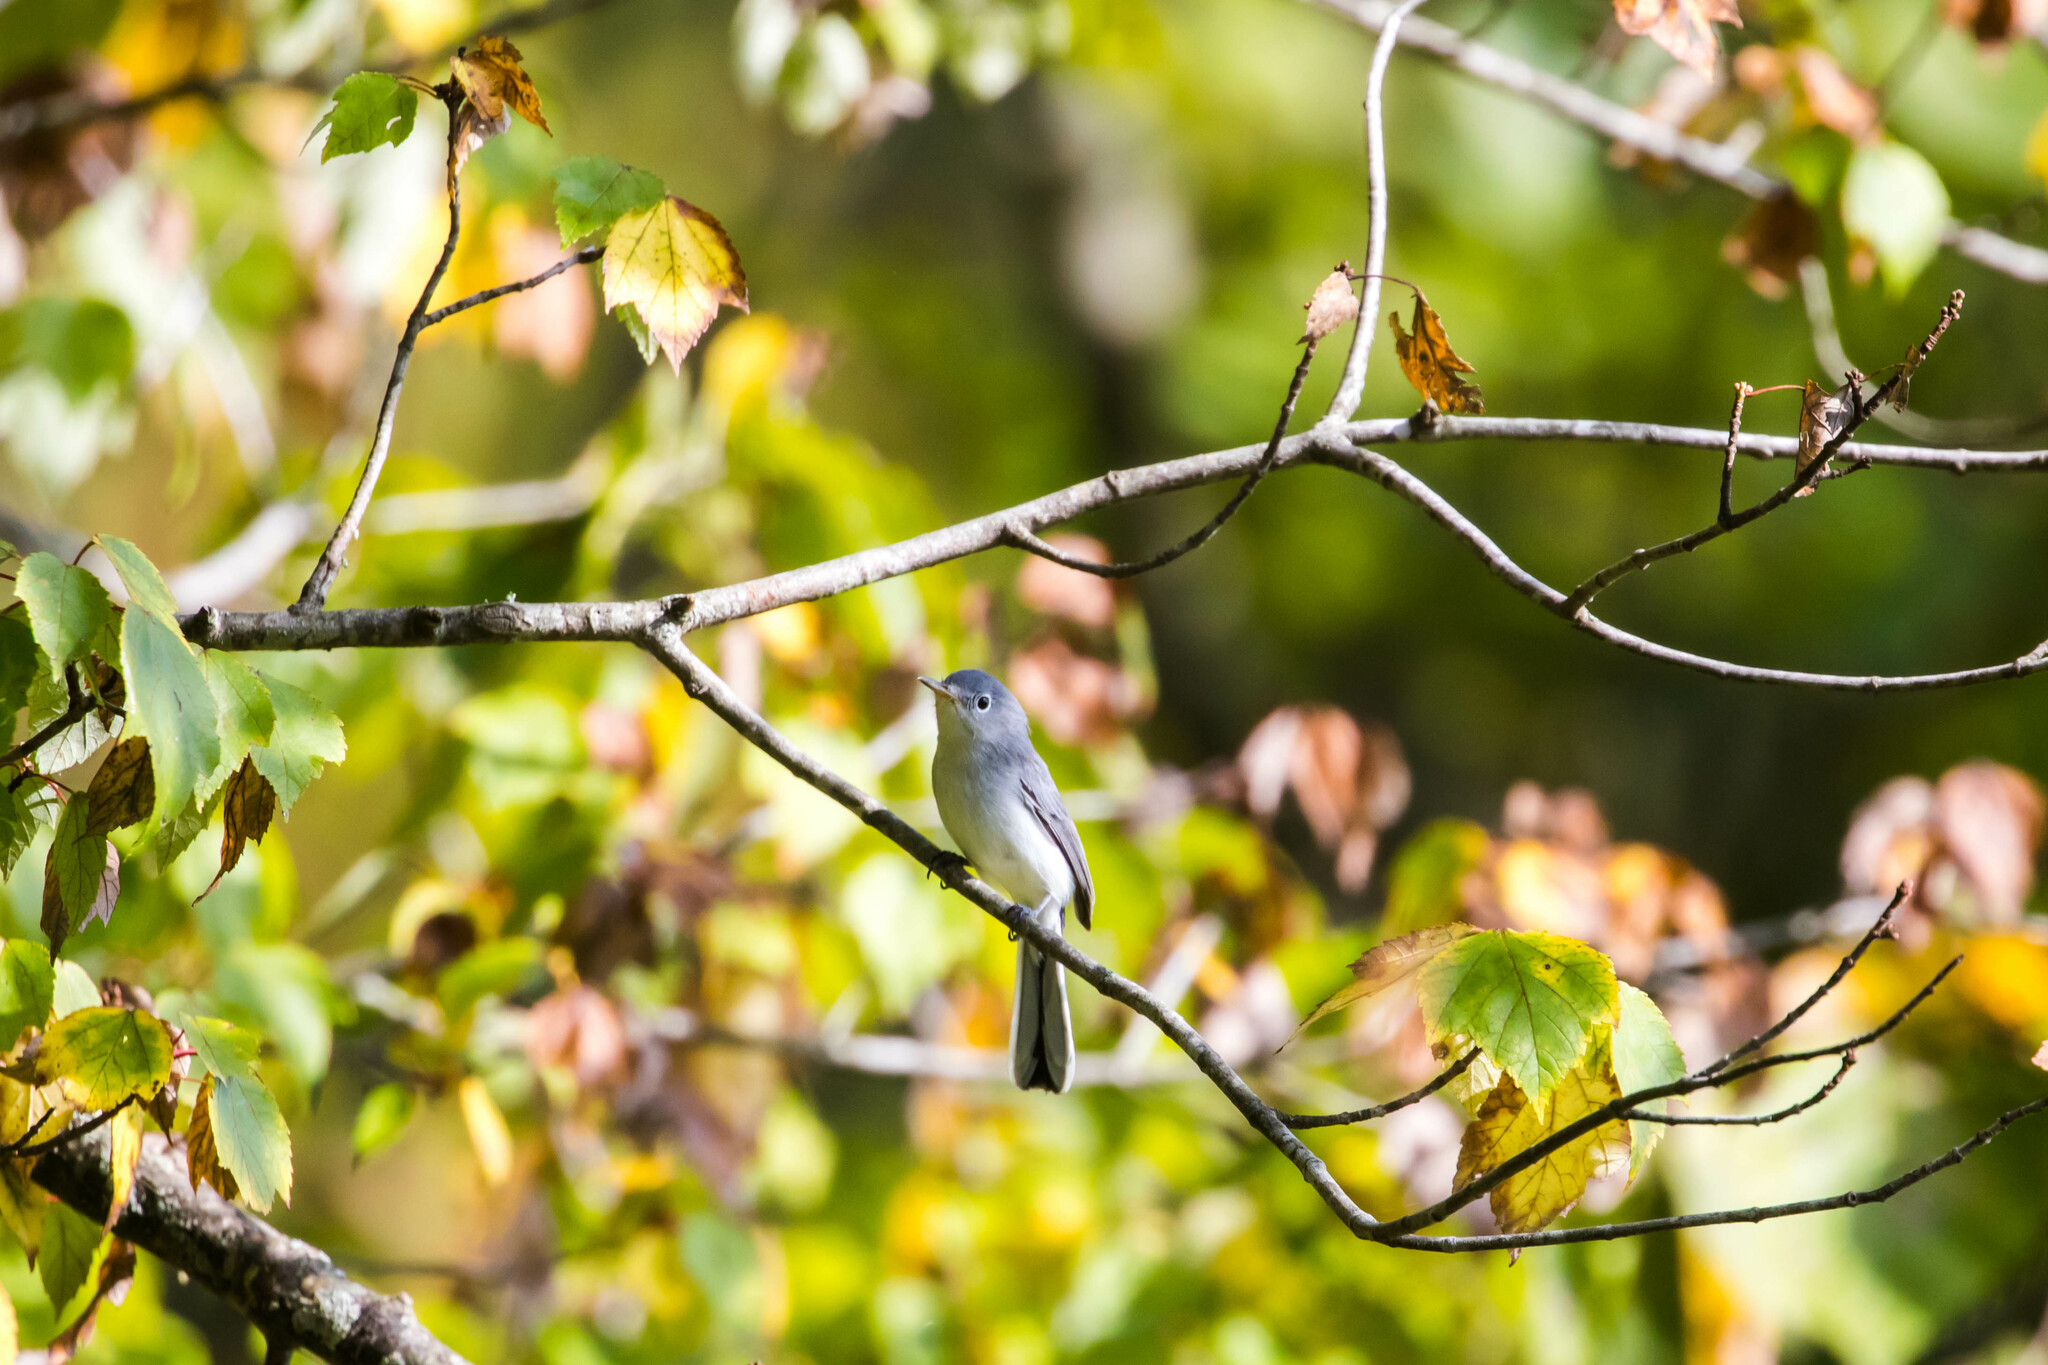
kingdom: Animalia
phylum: Chordata
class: Aves
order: Passeriformes
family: Polioptilidae
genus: Polioptila
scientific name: Polioptila caerulea
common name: Blue-gray gnatcatcher
